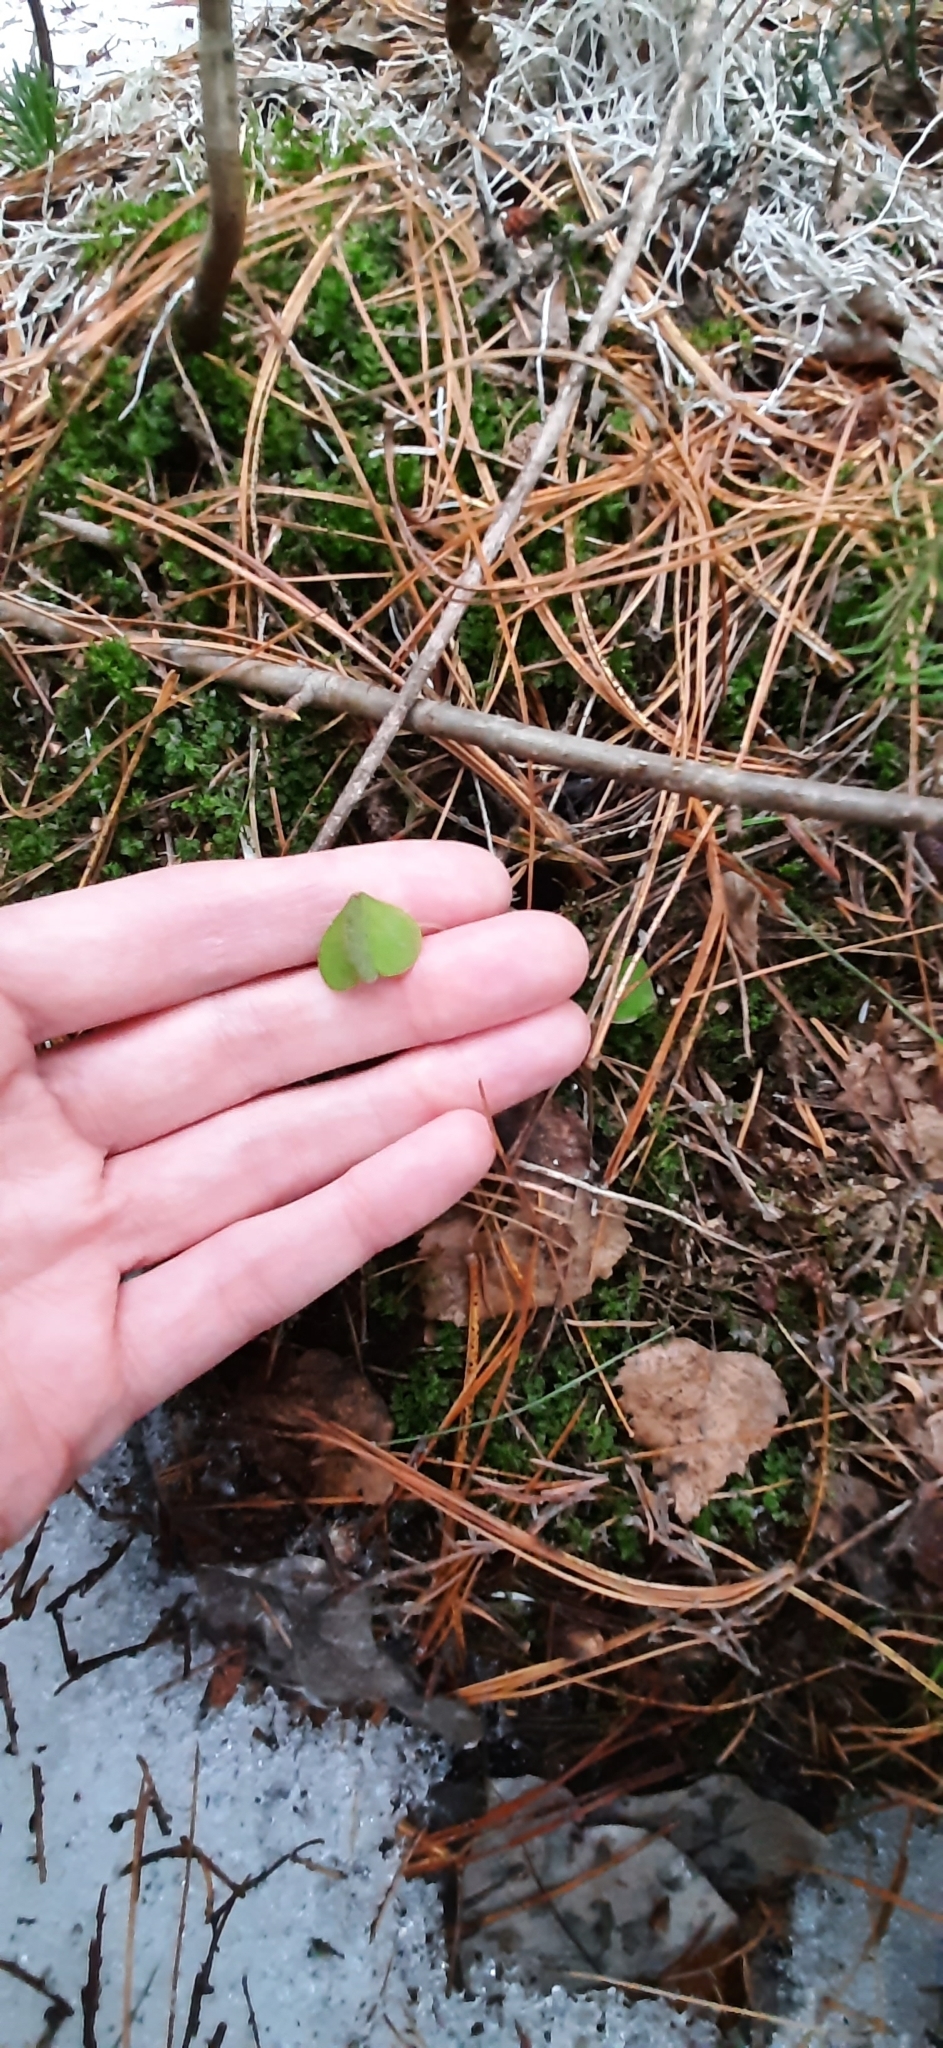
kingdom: Plantae
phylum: Tracheophyta
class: Magnoliopsida
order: Oxalidales
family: Oxalidaceae
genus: Oxalis
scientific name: Oxalis acetosella
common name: Wood-sorrel
